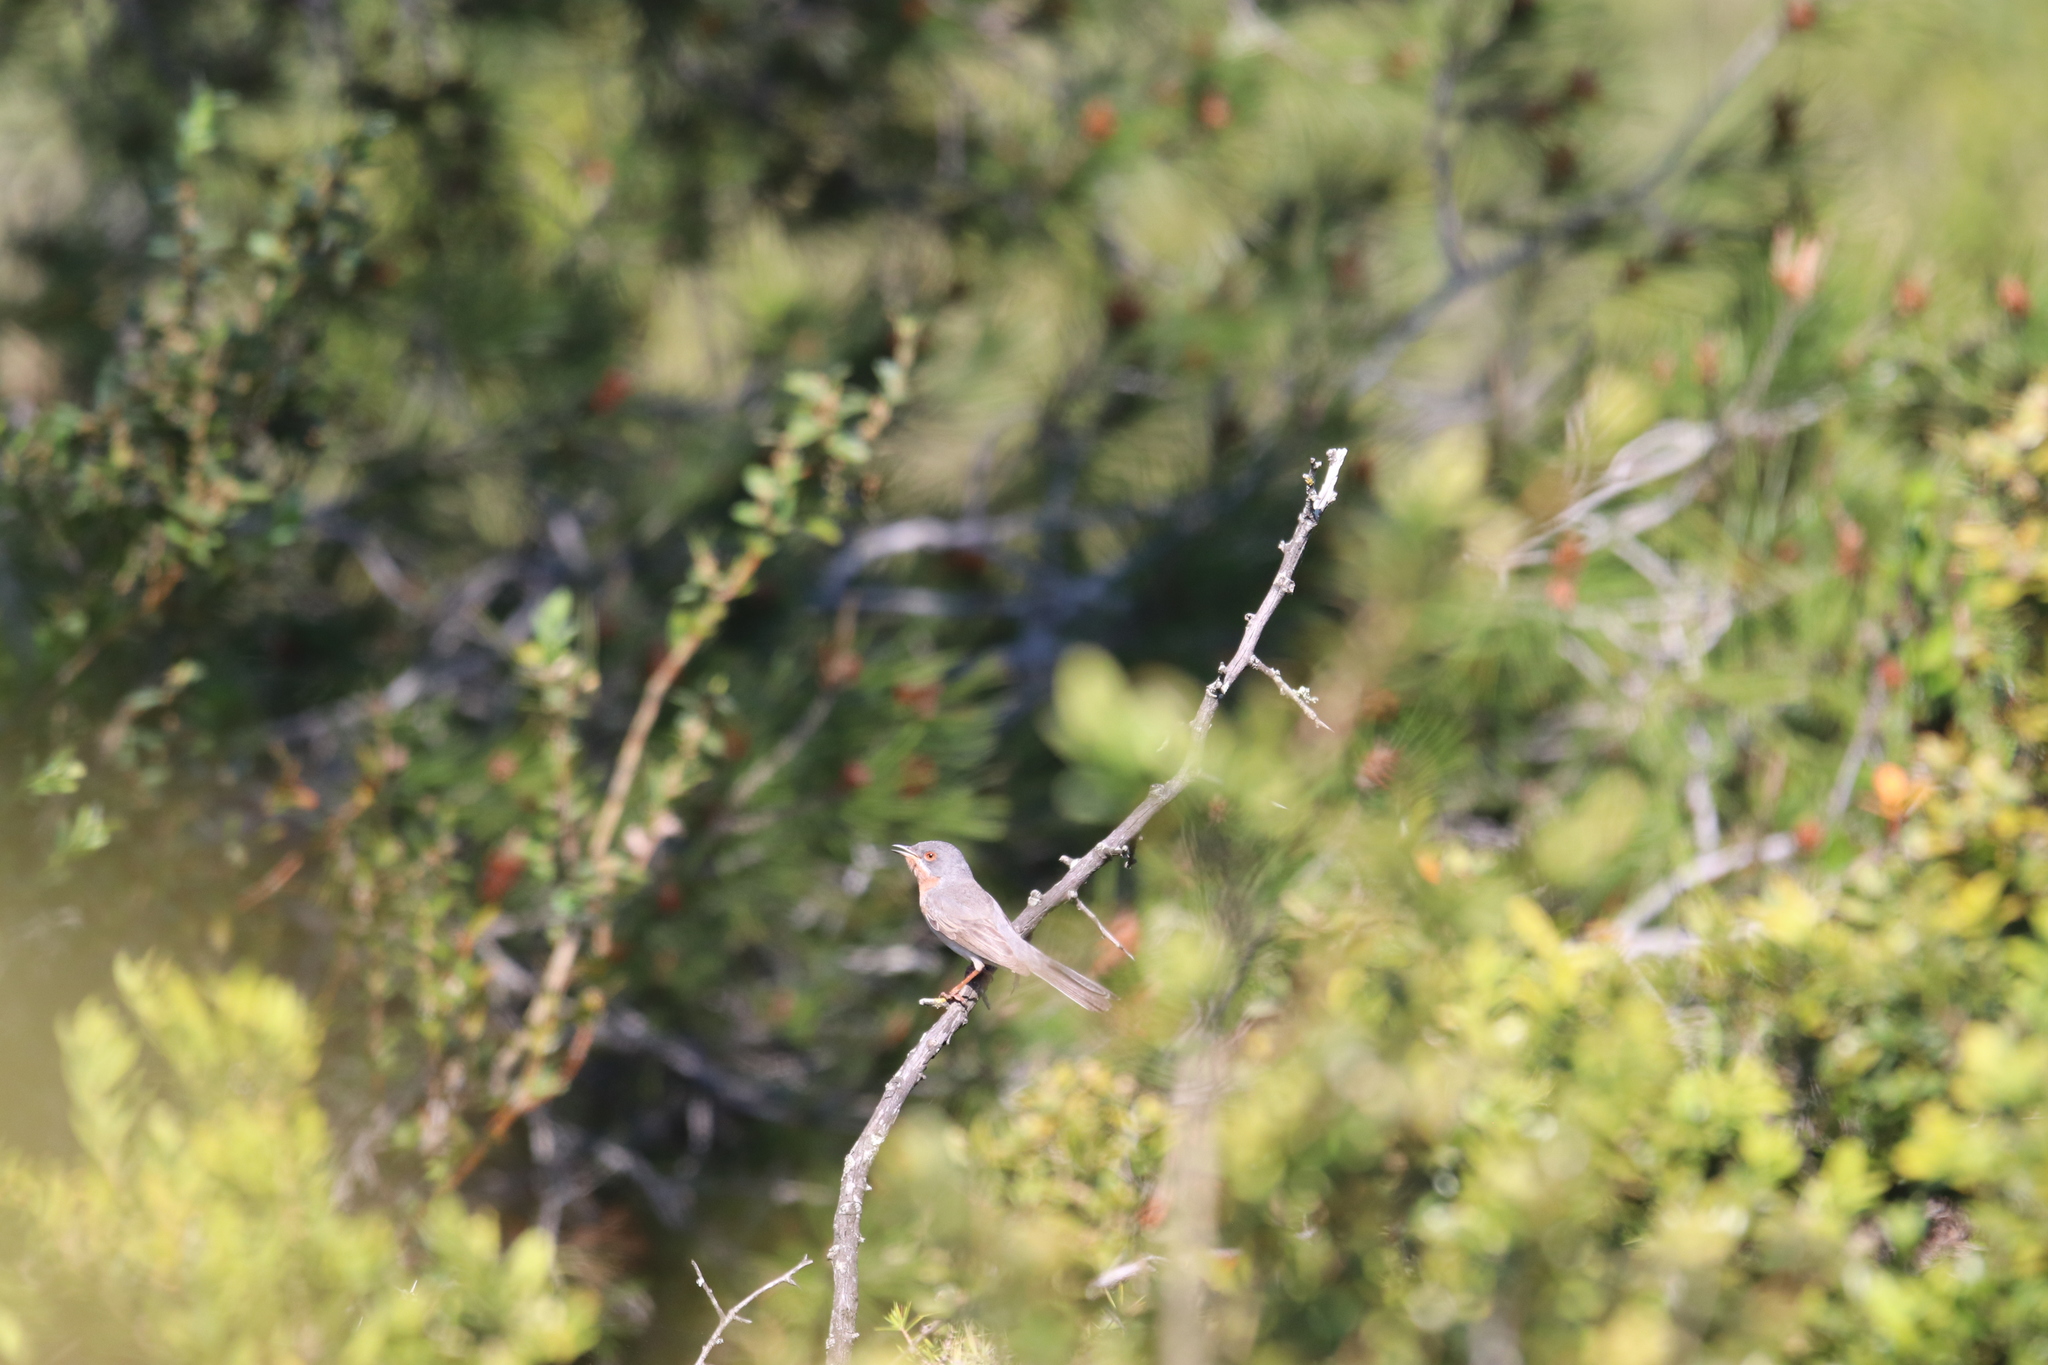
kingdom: Animalia
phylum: Chordata
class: Aves
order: Passeriformes
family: Sylviidae
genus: Curruca
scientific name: Curruca iberiae
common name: Western subalpine warbler
